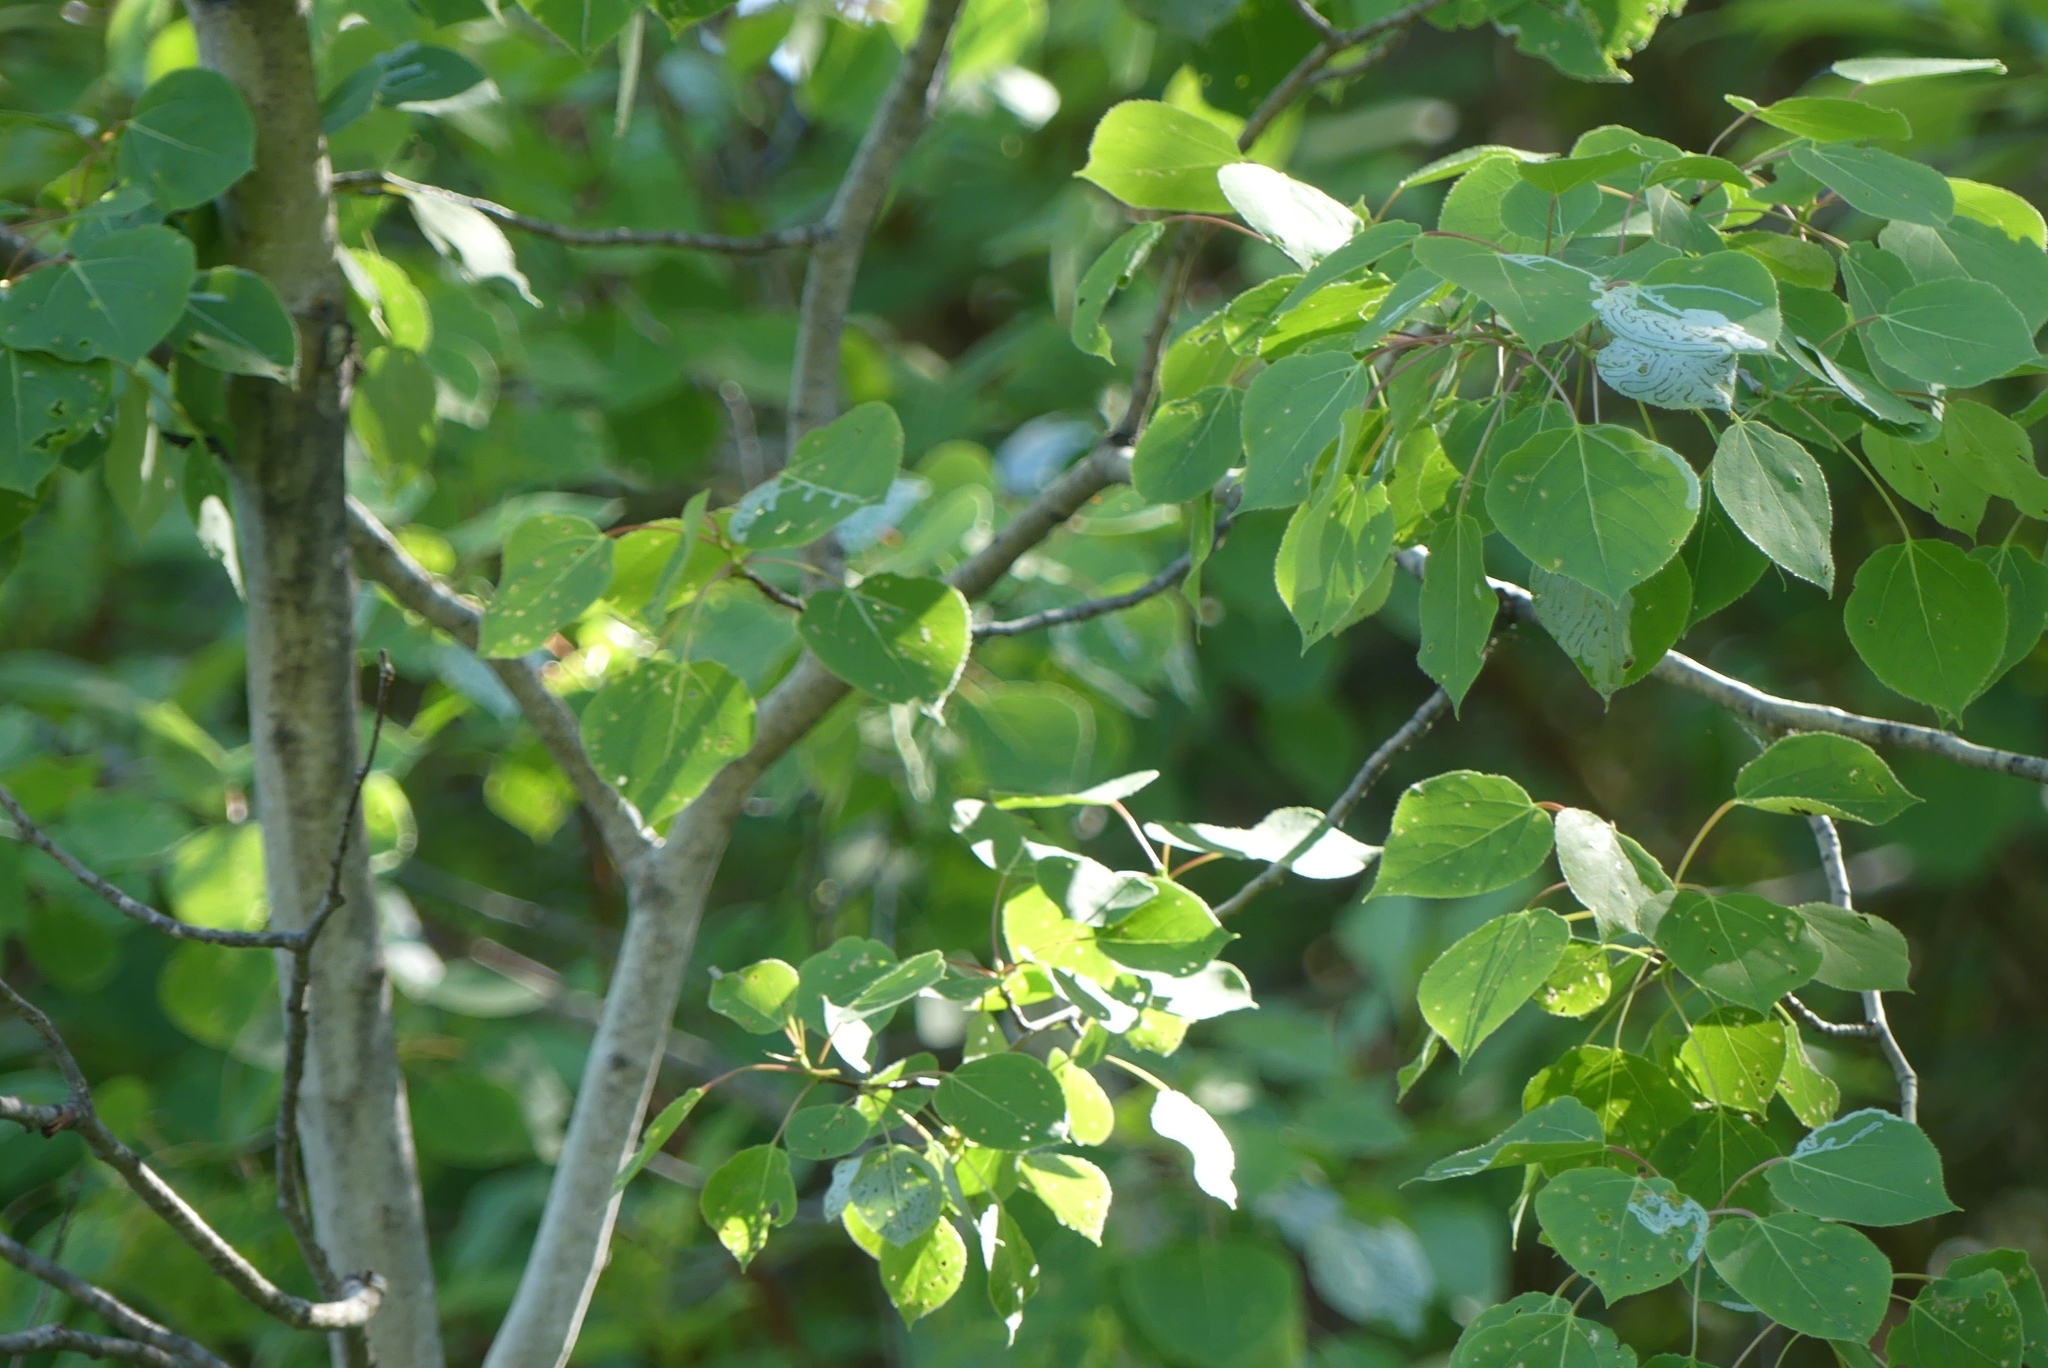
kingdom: Plantae
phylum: Tracheophyta
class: Magnoliopsida
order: Malpighiales
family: Salicaceae
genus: Populus
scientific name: Populus tremuloides
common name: Quaking aspen
